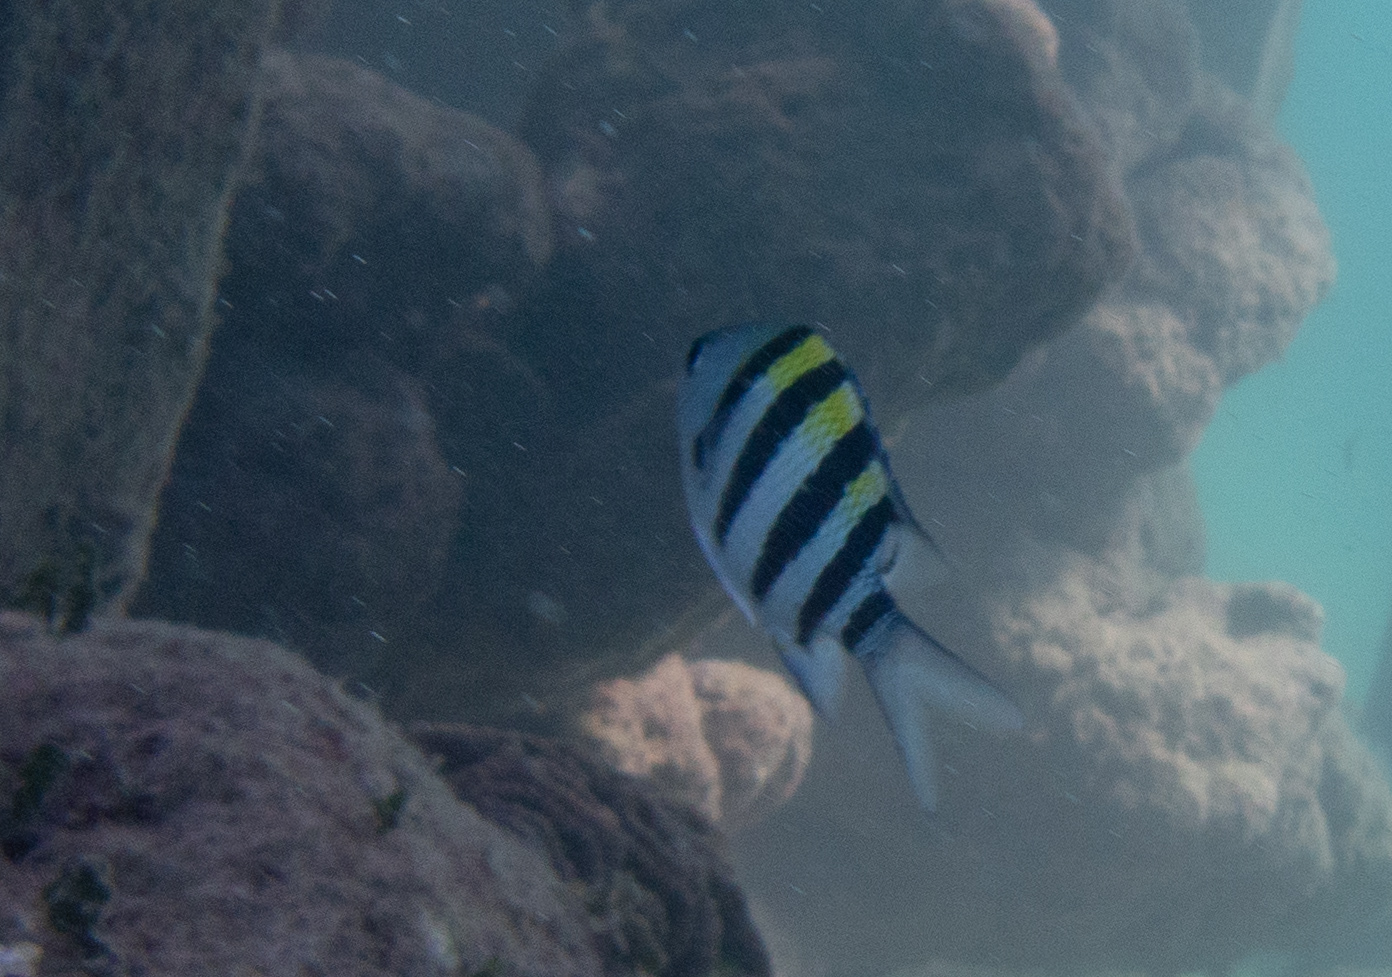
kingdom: Animalia
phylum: Chordata
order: Perciformes
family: Pomacentridae
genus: Abudefduf
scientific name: Abudefduf vaigiensis
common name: Indo-pacific sergeant
